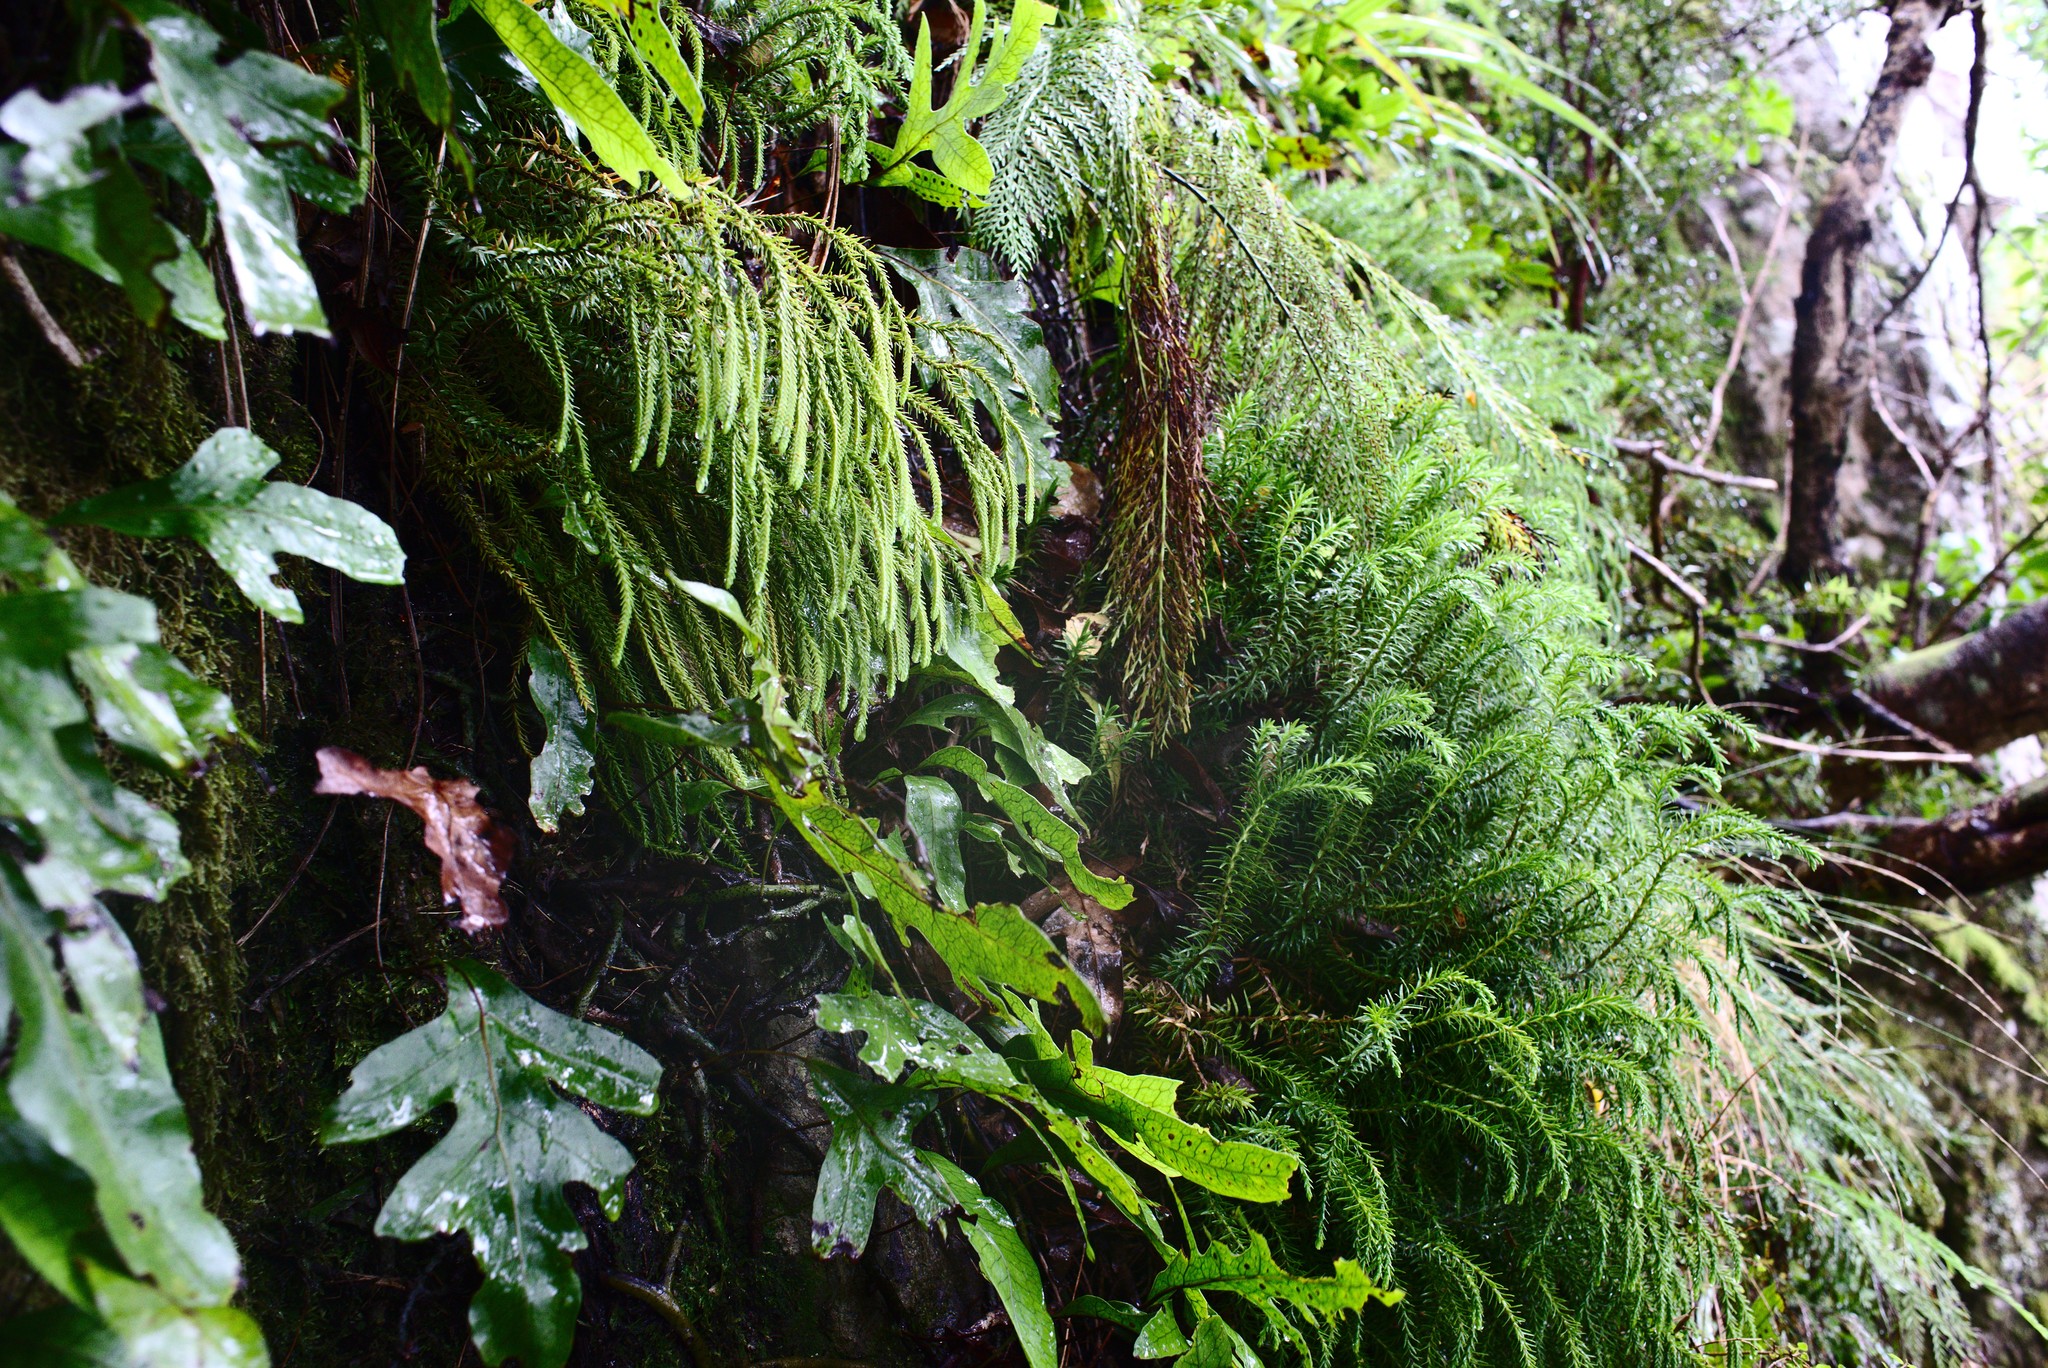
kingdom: Plantae
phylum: Tracheophyta
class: Lycopodiopsida
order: Lycopodiales
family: Lycopodiaceae
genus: Phlegmariurus
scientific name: Phlegmariurus varius
